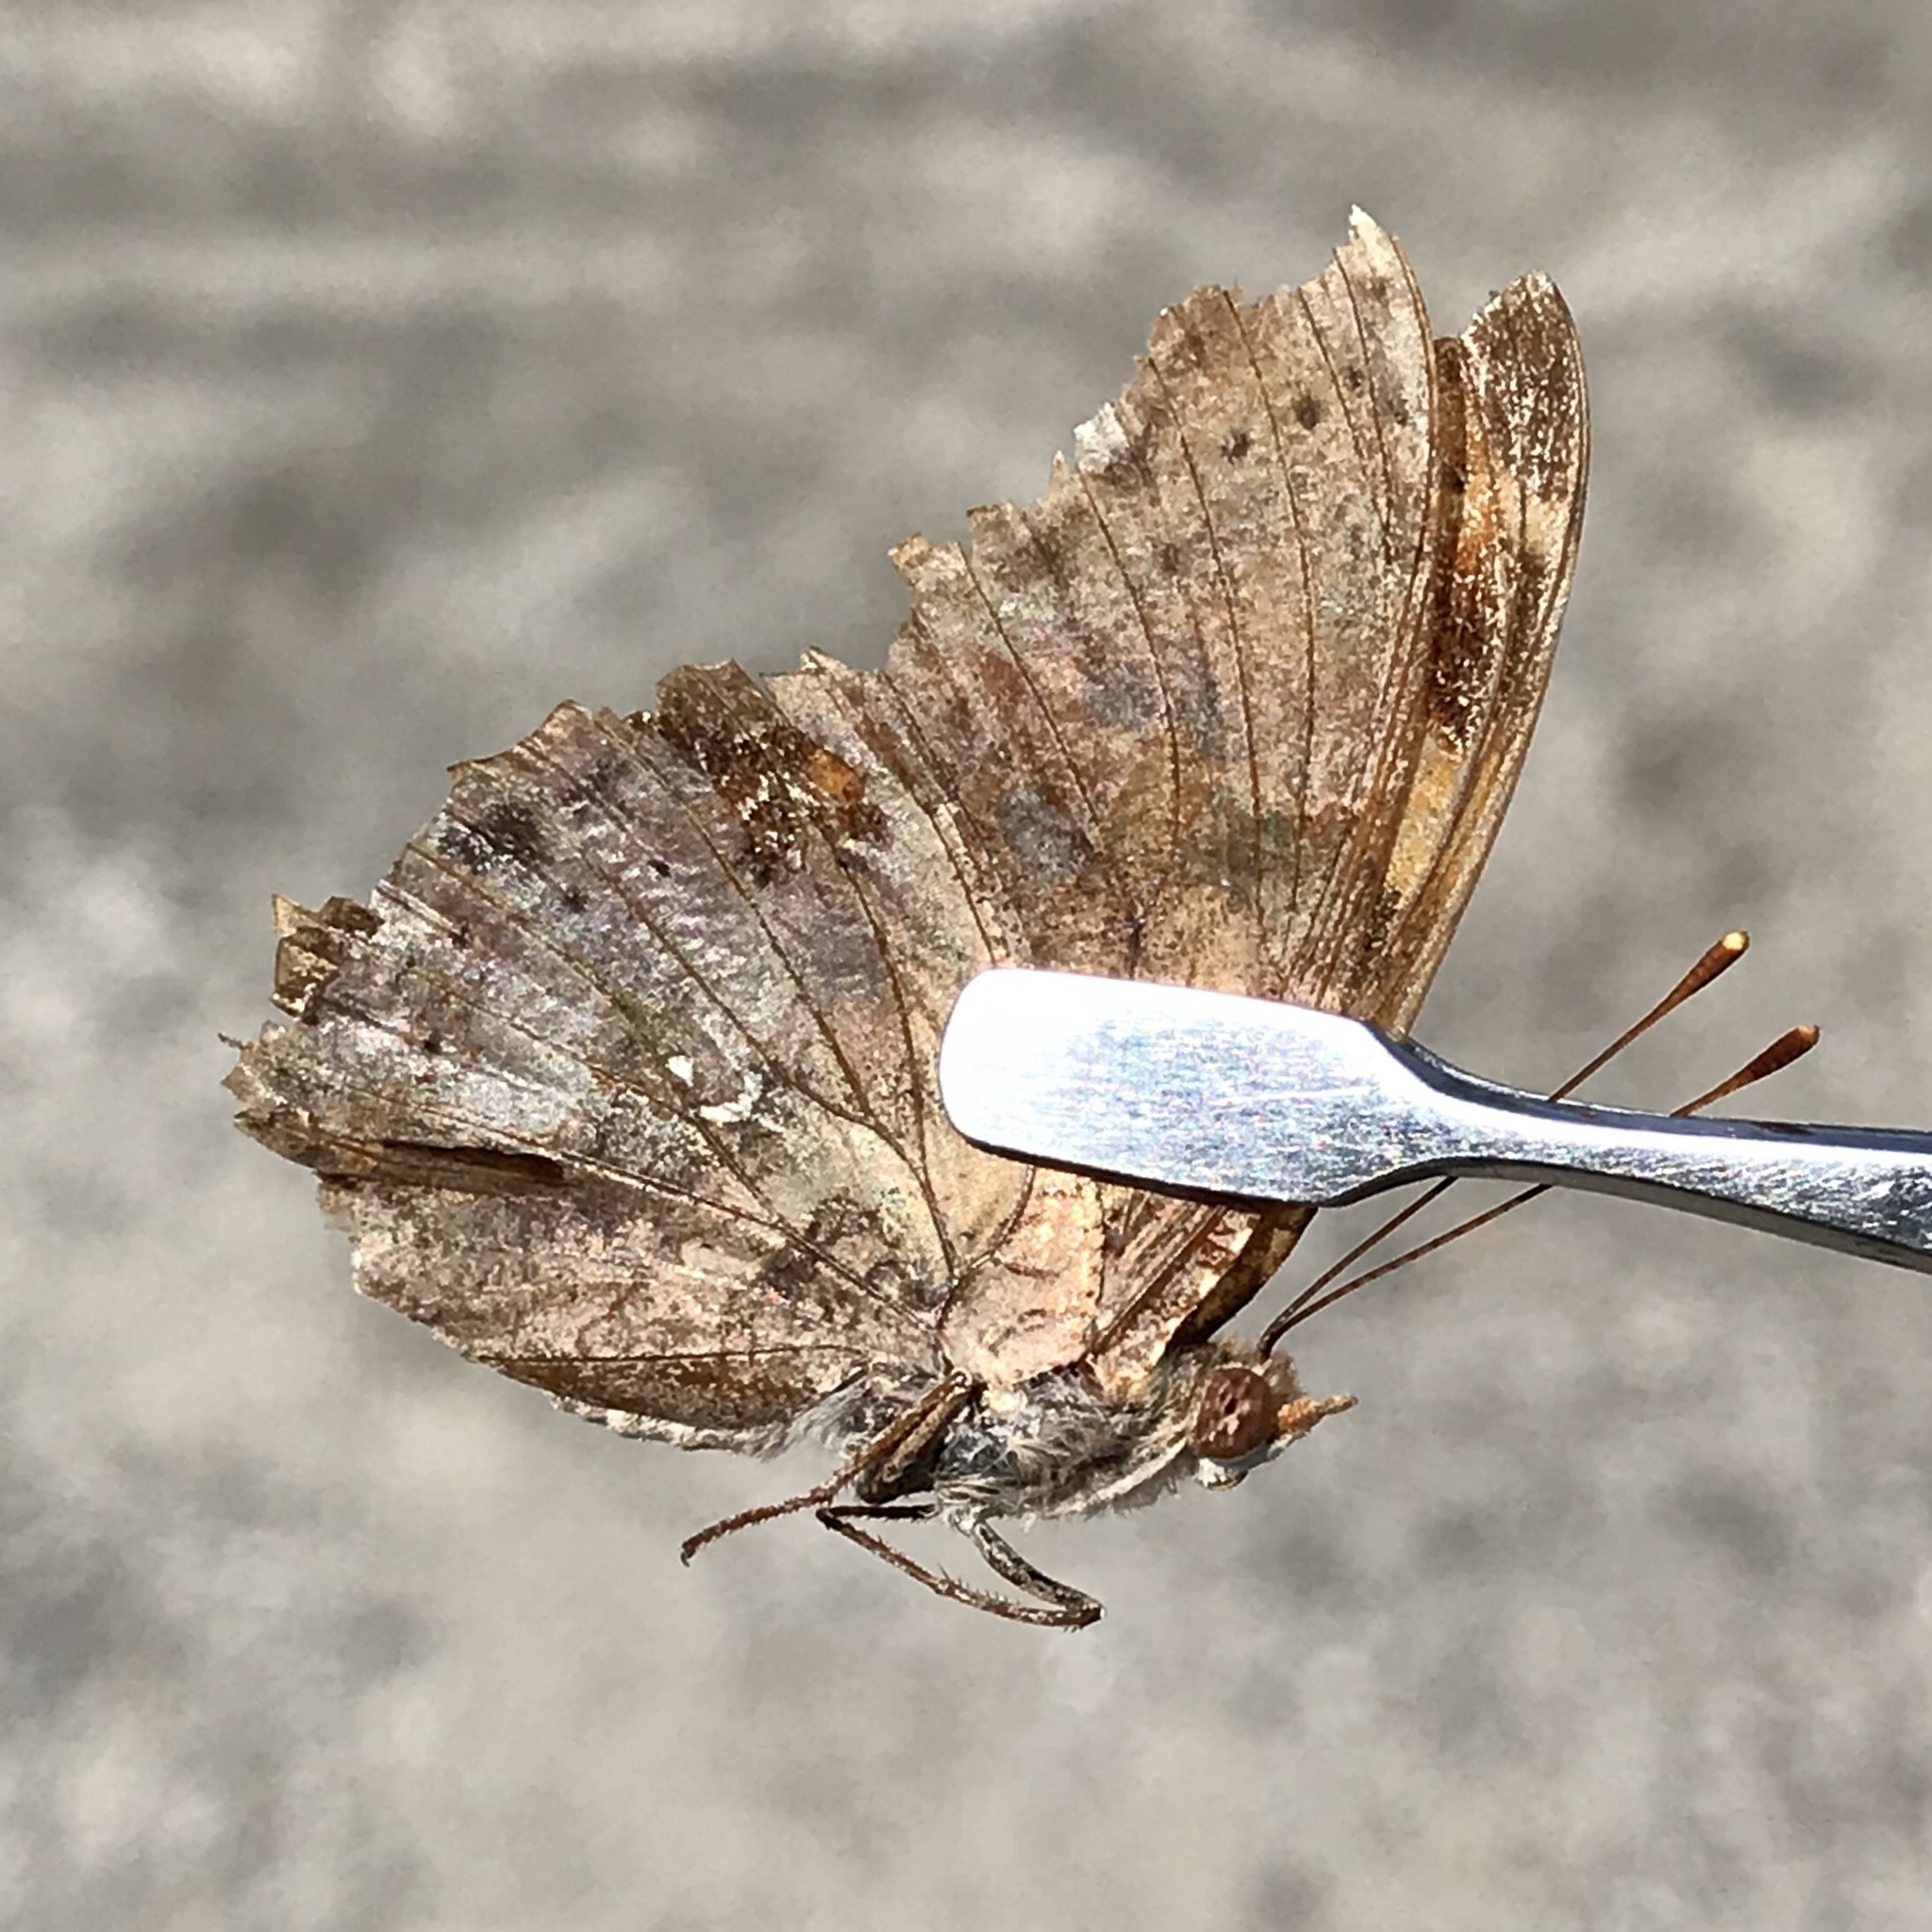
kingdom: Animalia
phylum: Arthropoda
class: Insecta
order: Lepidoptera
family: Nymphalidae
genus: Polygonia
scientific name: Polygonia interrogationis
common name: Question mark
